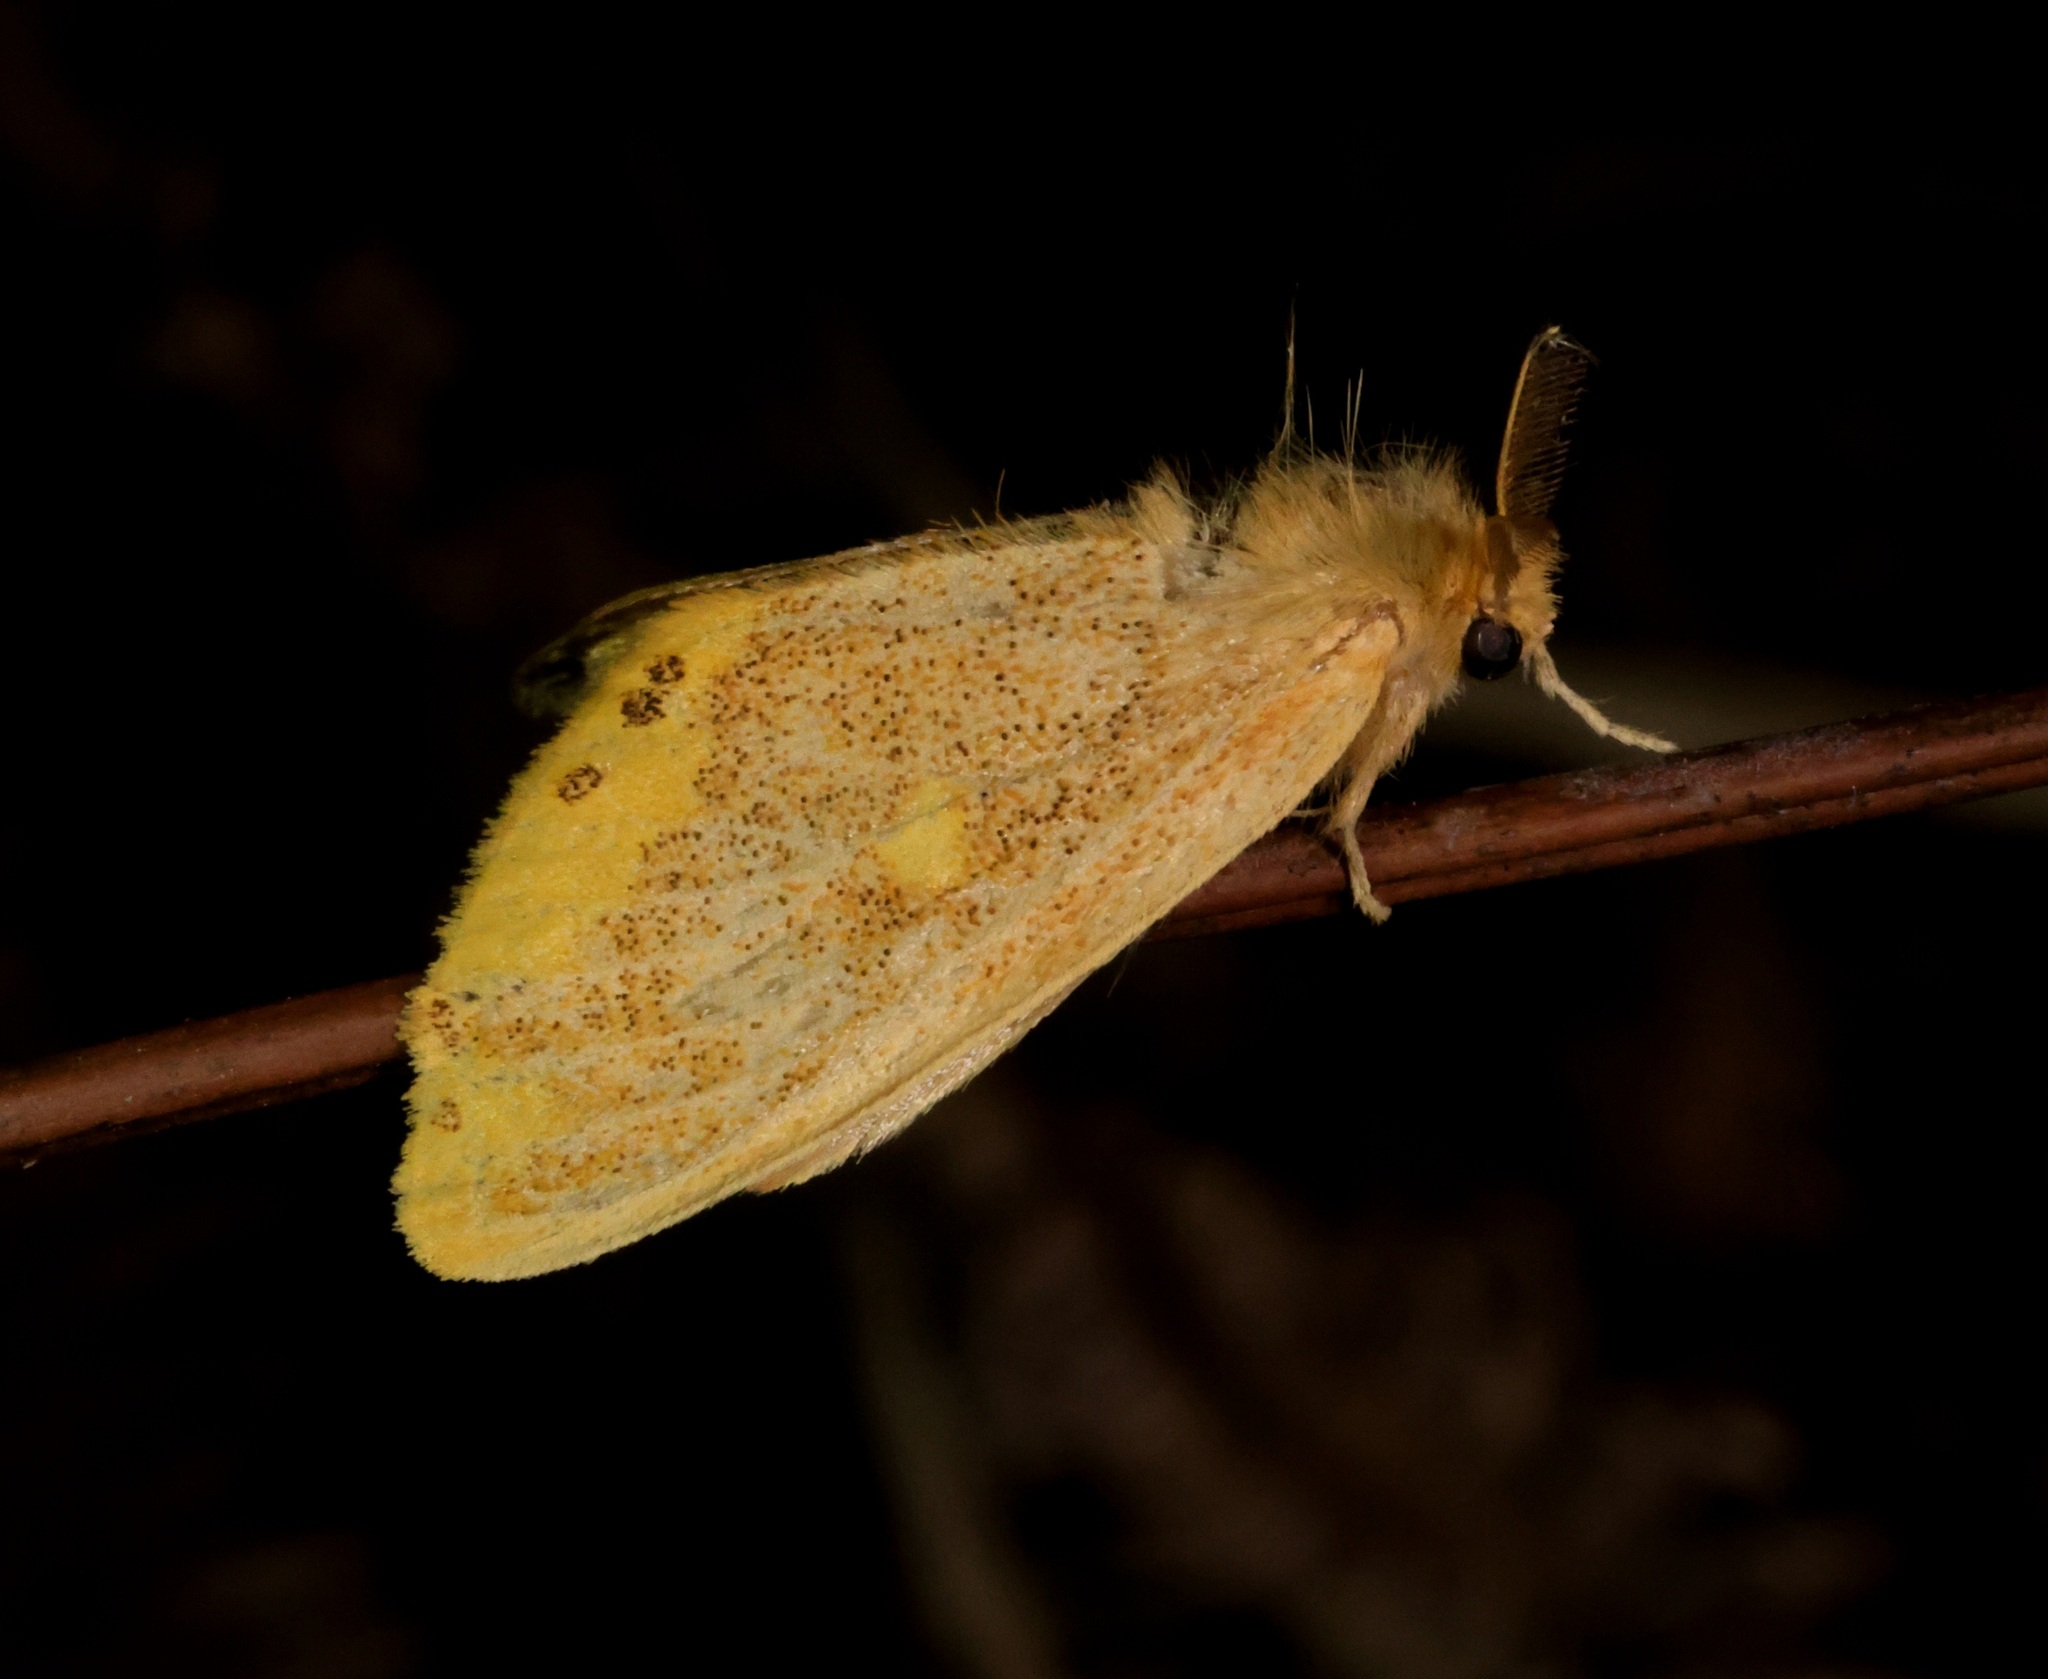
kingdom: Animalia
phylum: Arthropoda
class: Insecta
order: Lepidoptera
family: Erebidae
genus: Euproctis
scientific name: Euproctis quadrangularis
